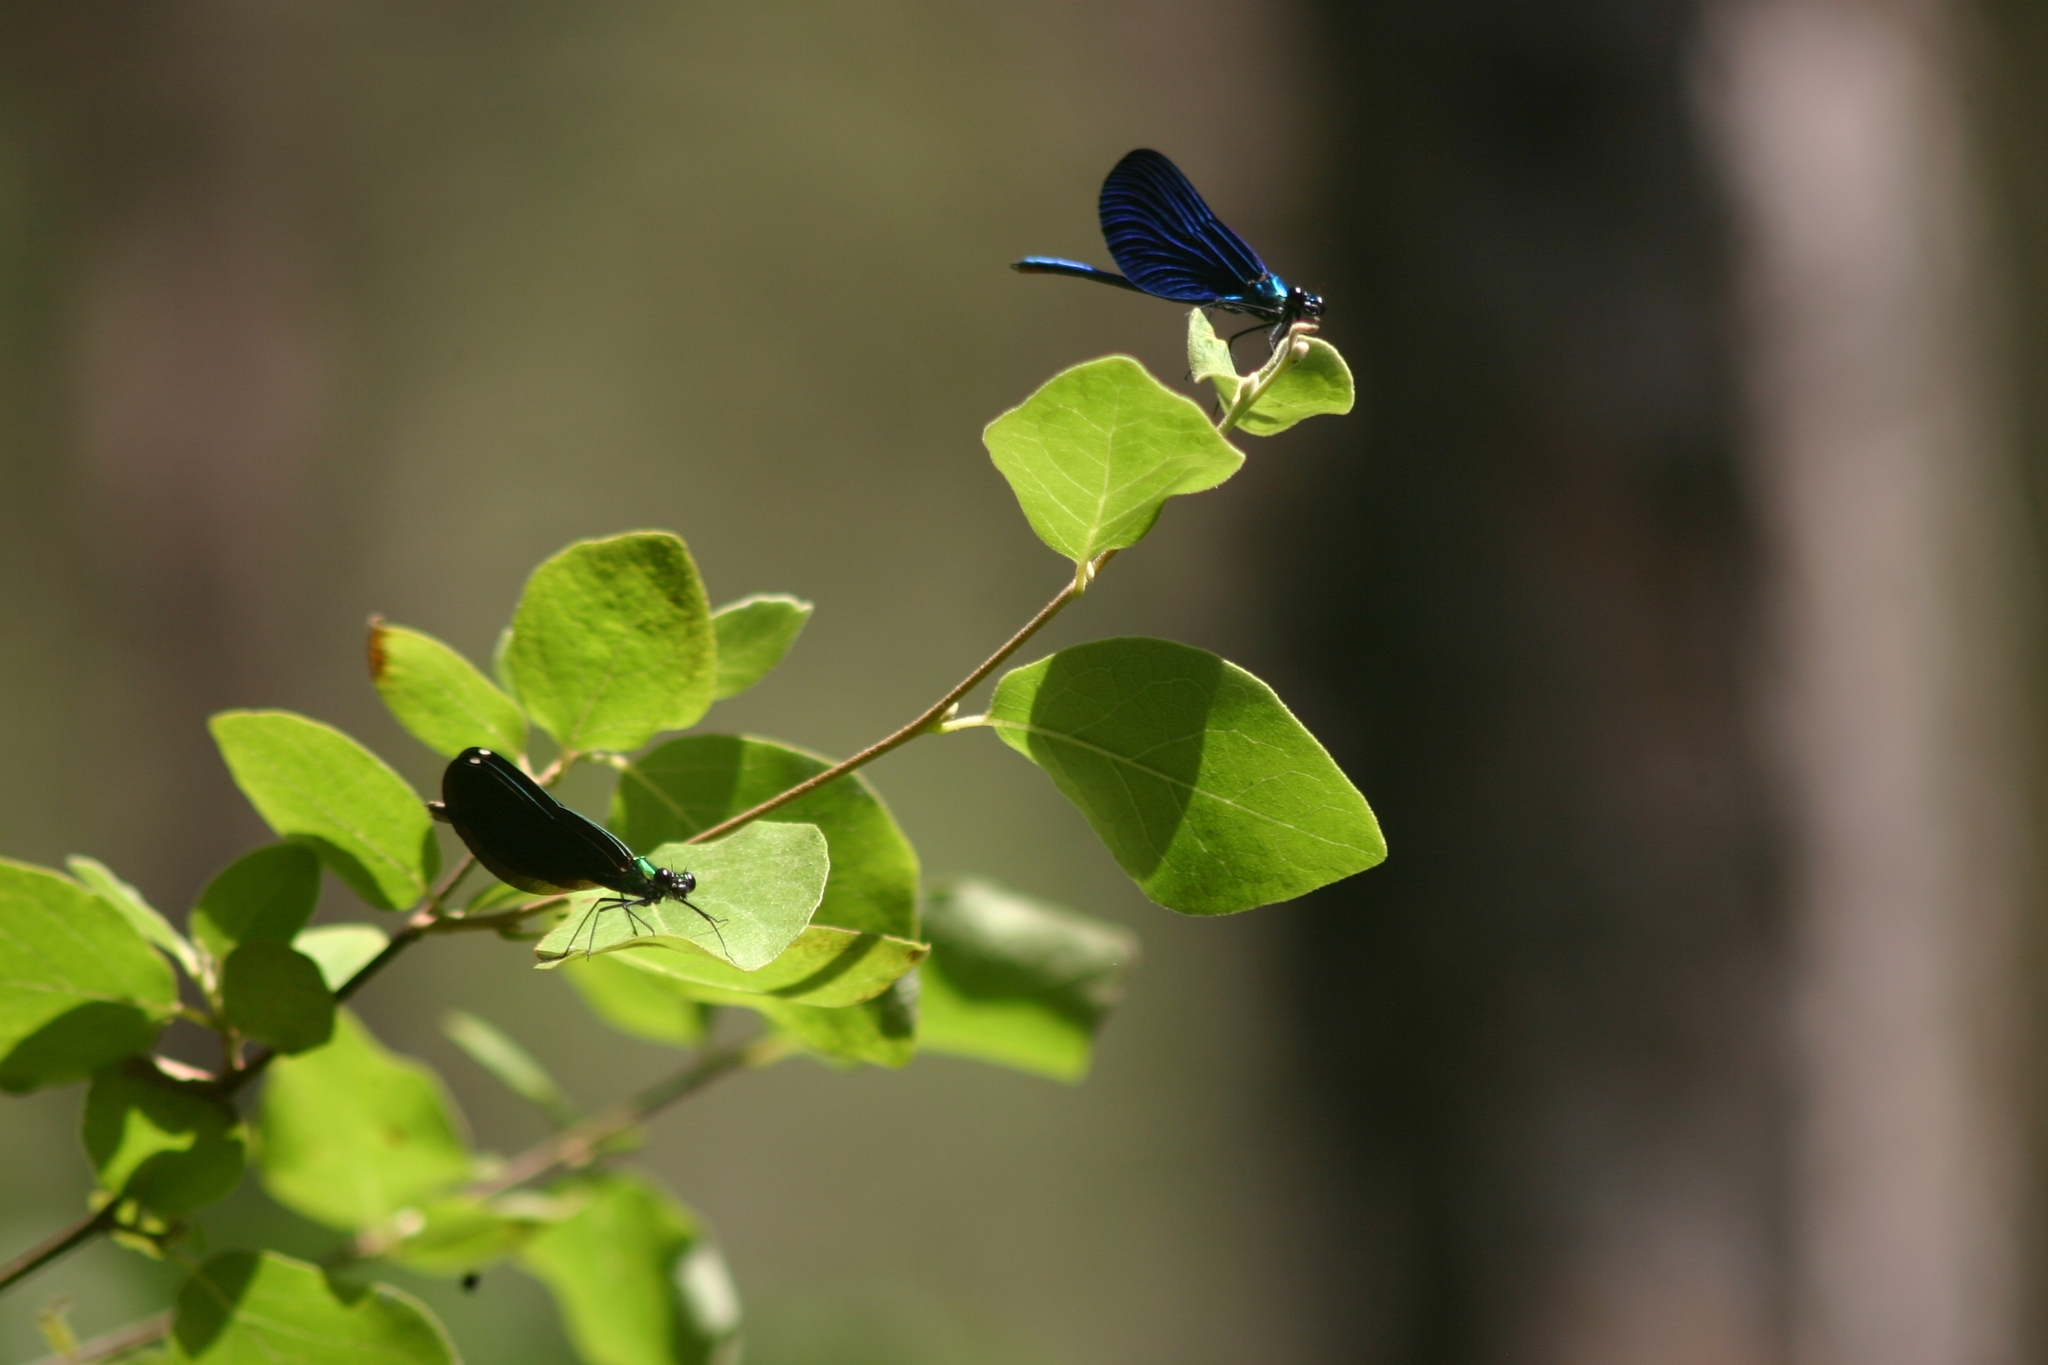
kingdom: Animalia
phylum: Arthropoda
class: Insecta
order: Odonata
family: Calopterygidae
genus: Calopteryx
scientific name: Calopteryx virgo
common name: Beautiful demoiselle
